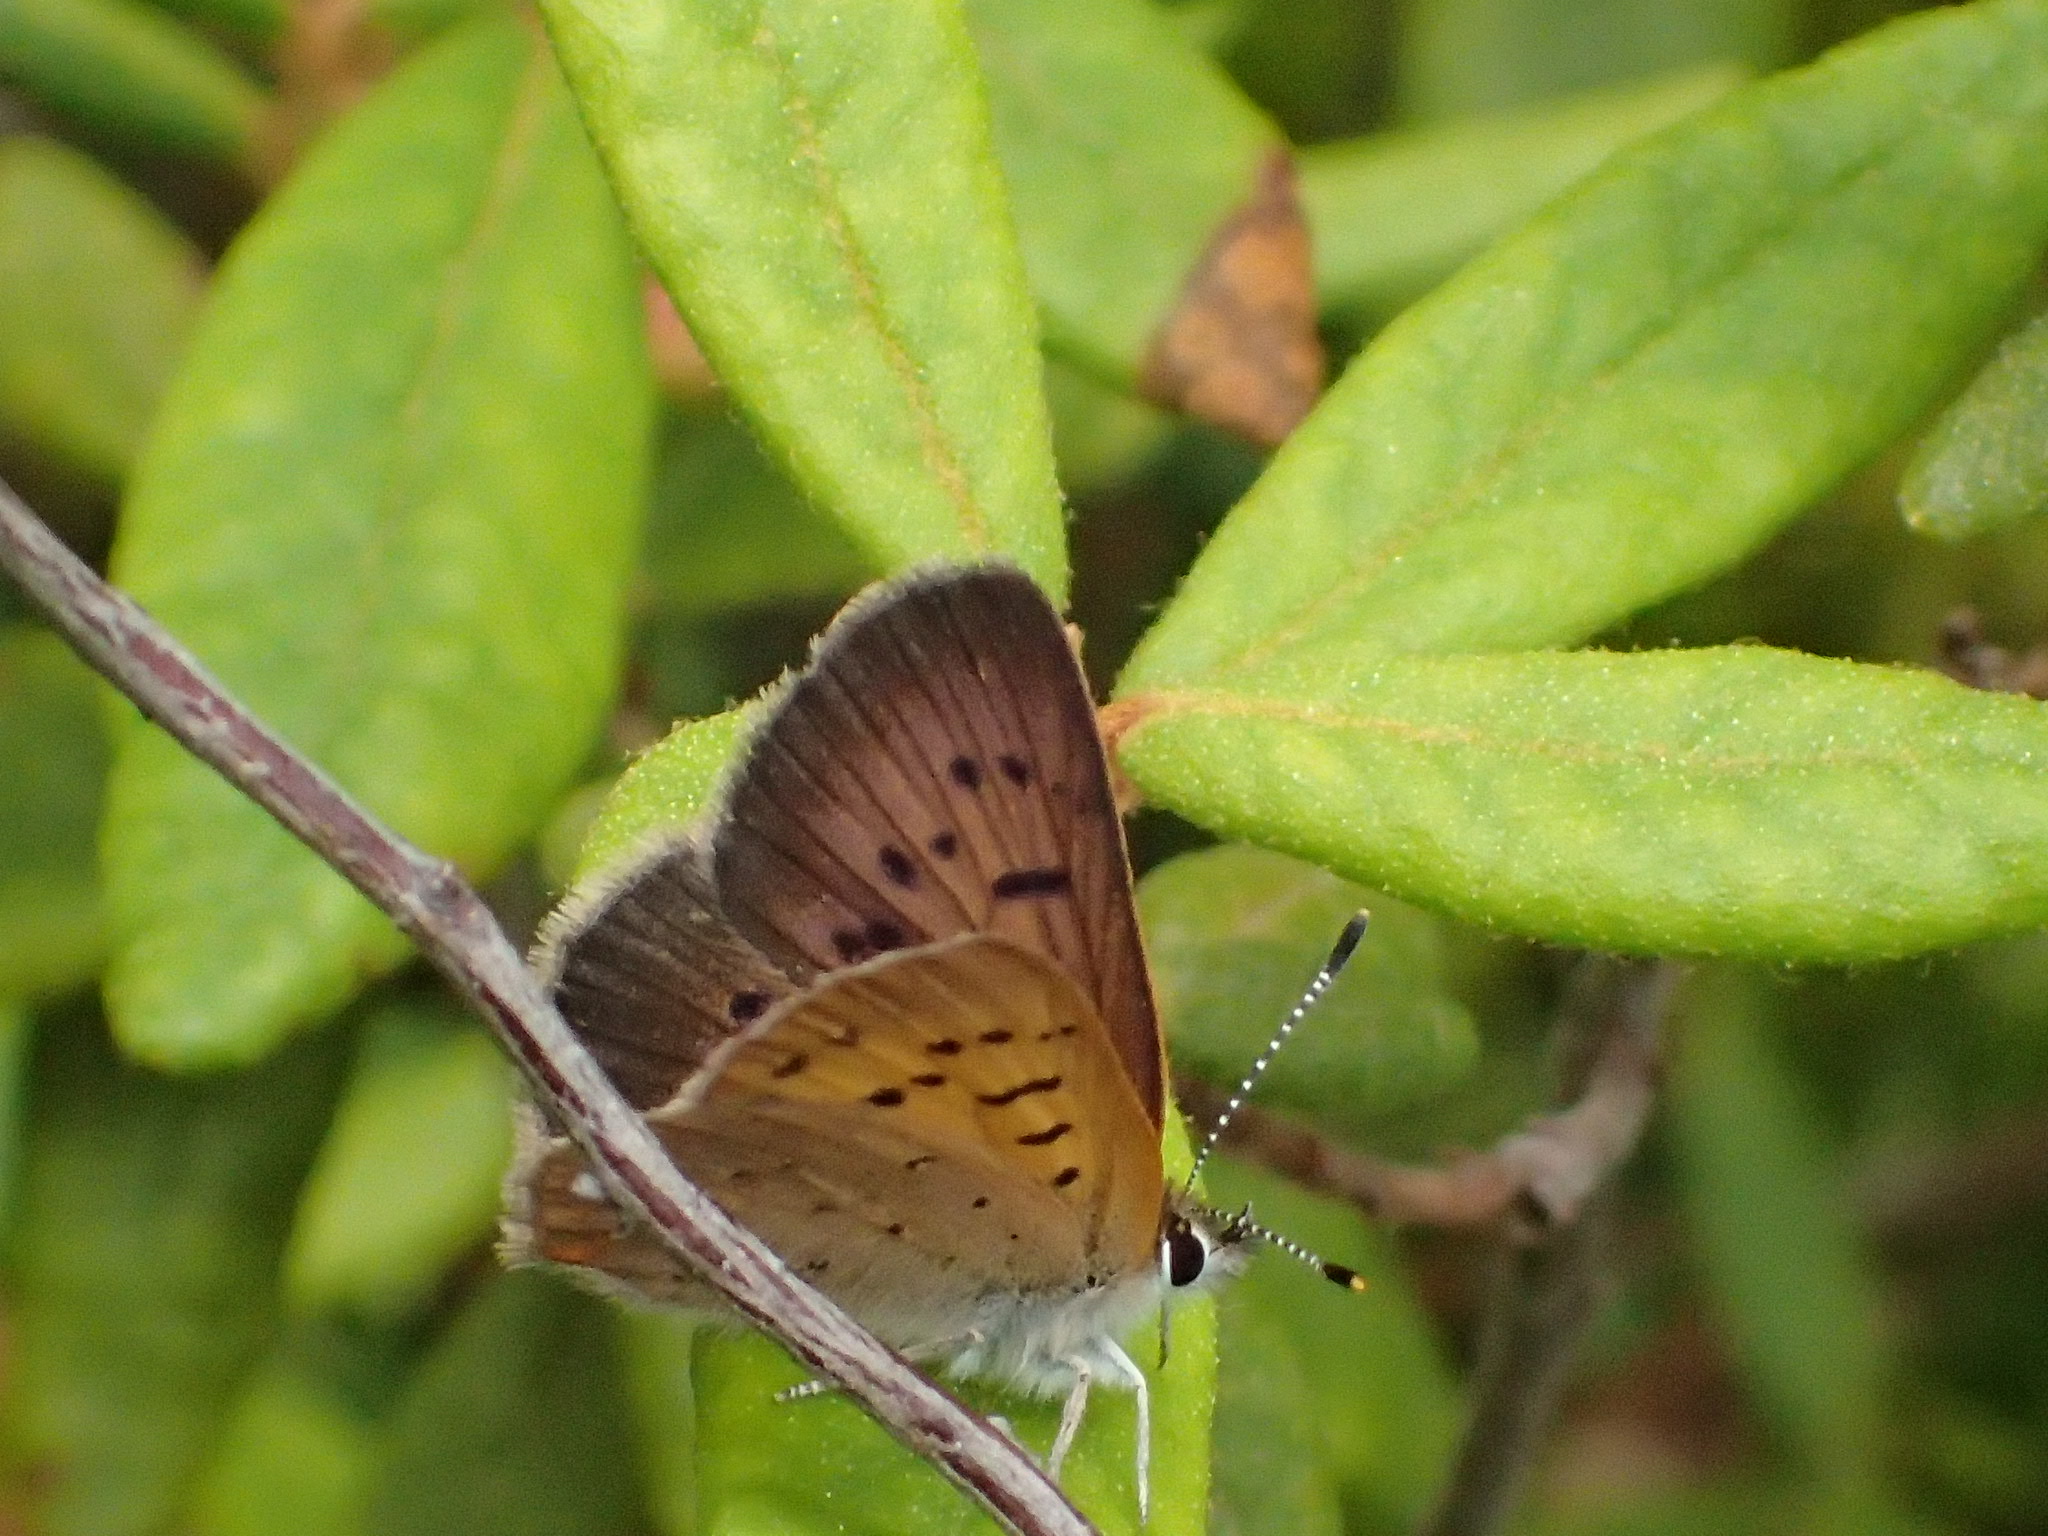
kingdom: Animalia
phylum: Arthropoda
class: Insecta
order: Lepidoptera
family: Lycaenidae
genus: Tharsalea
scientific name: Tharsalea dorcas
